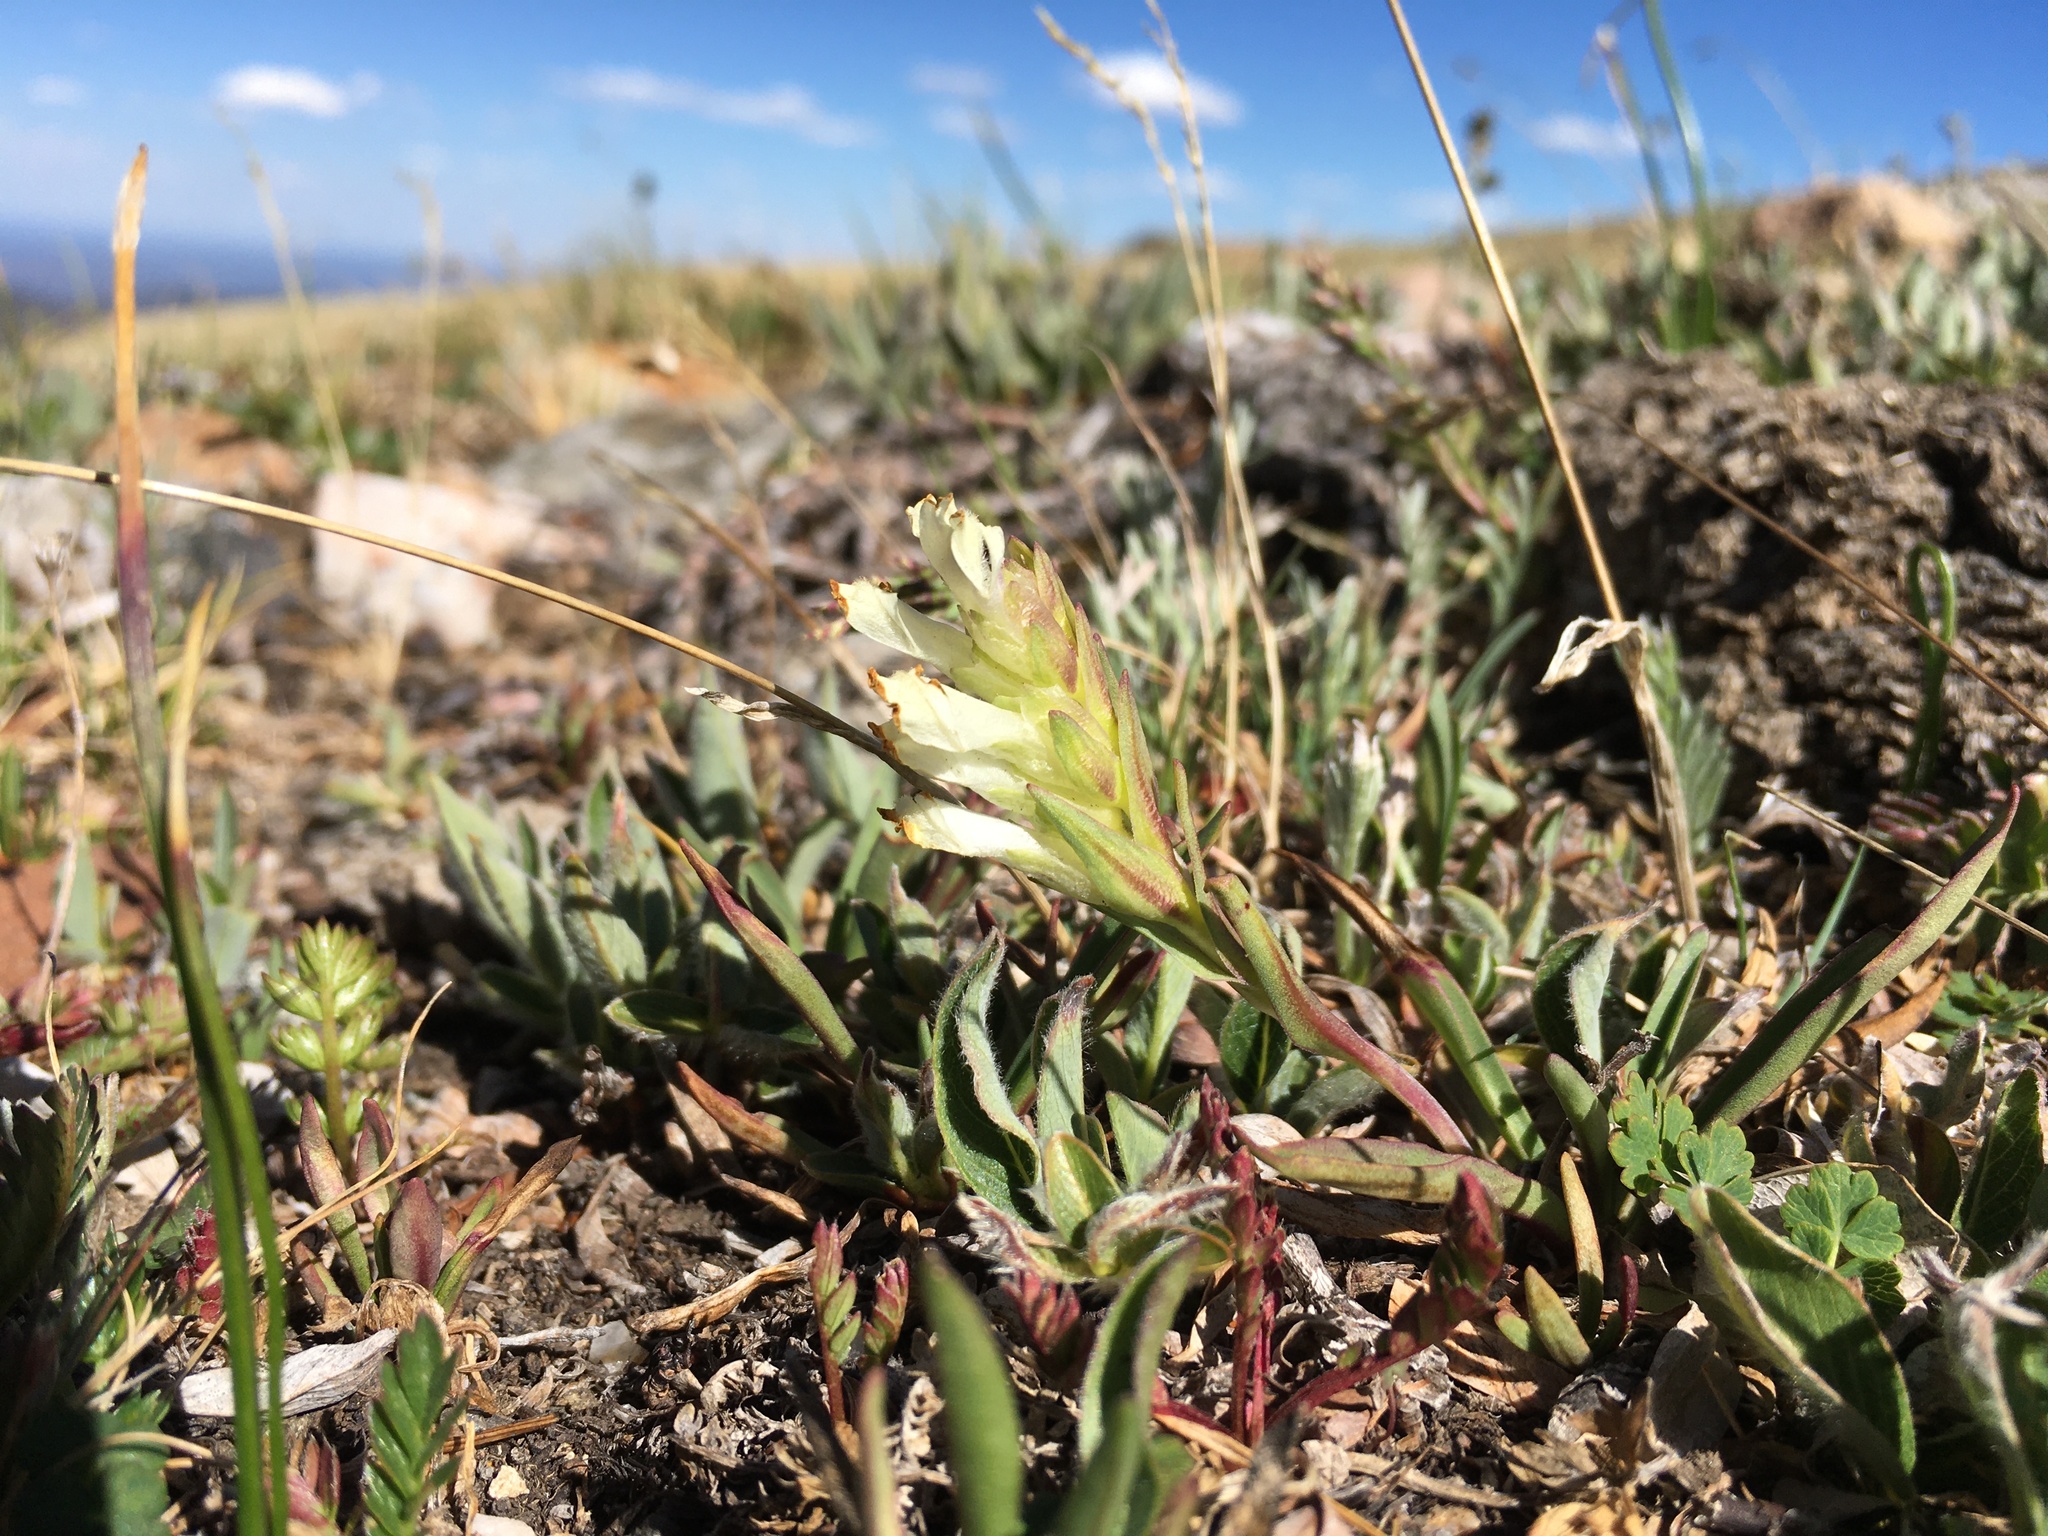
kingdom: Plantae
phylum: Tracheophyta
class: Magnoliopsida
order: Lamiales
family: Plantaginaceae
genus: Chionophila
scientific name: Chionophila jamesii
